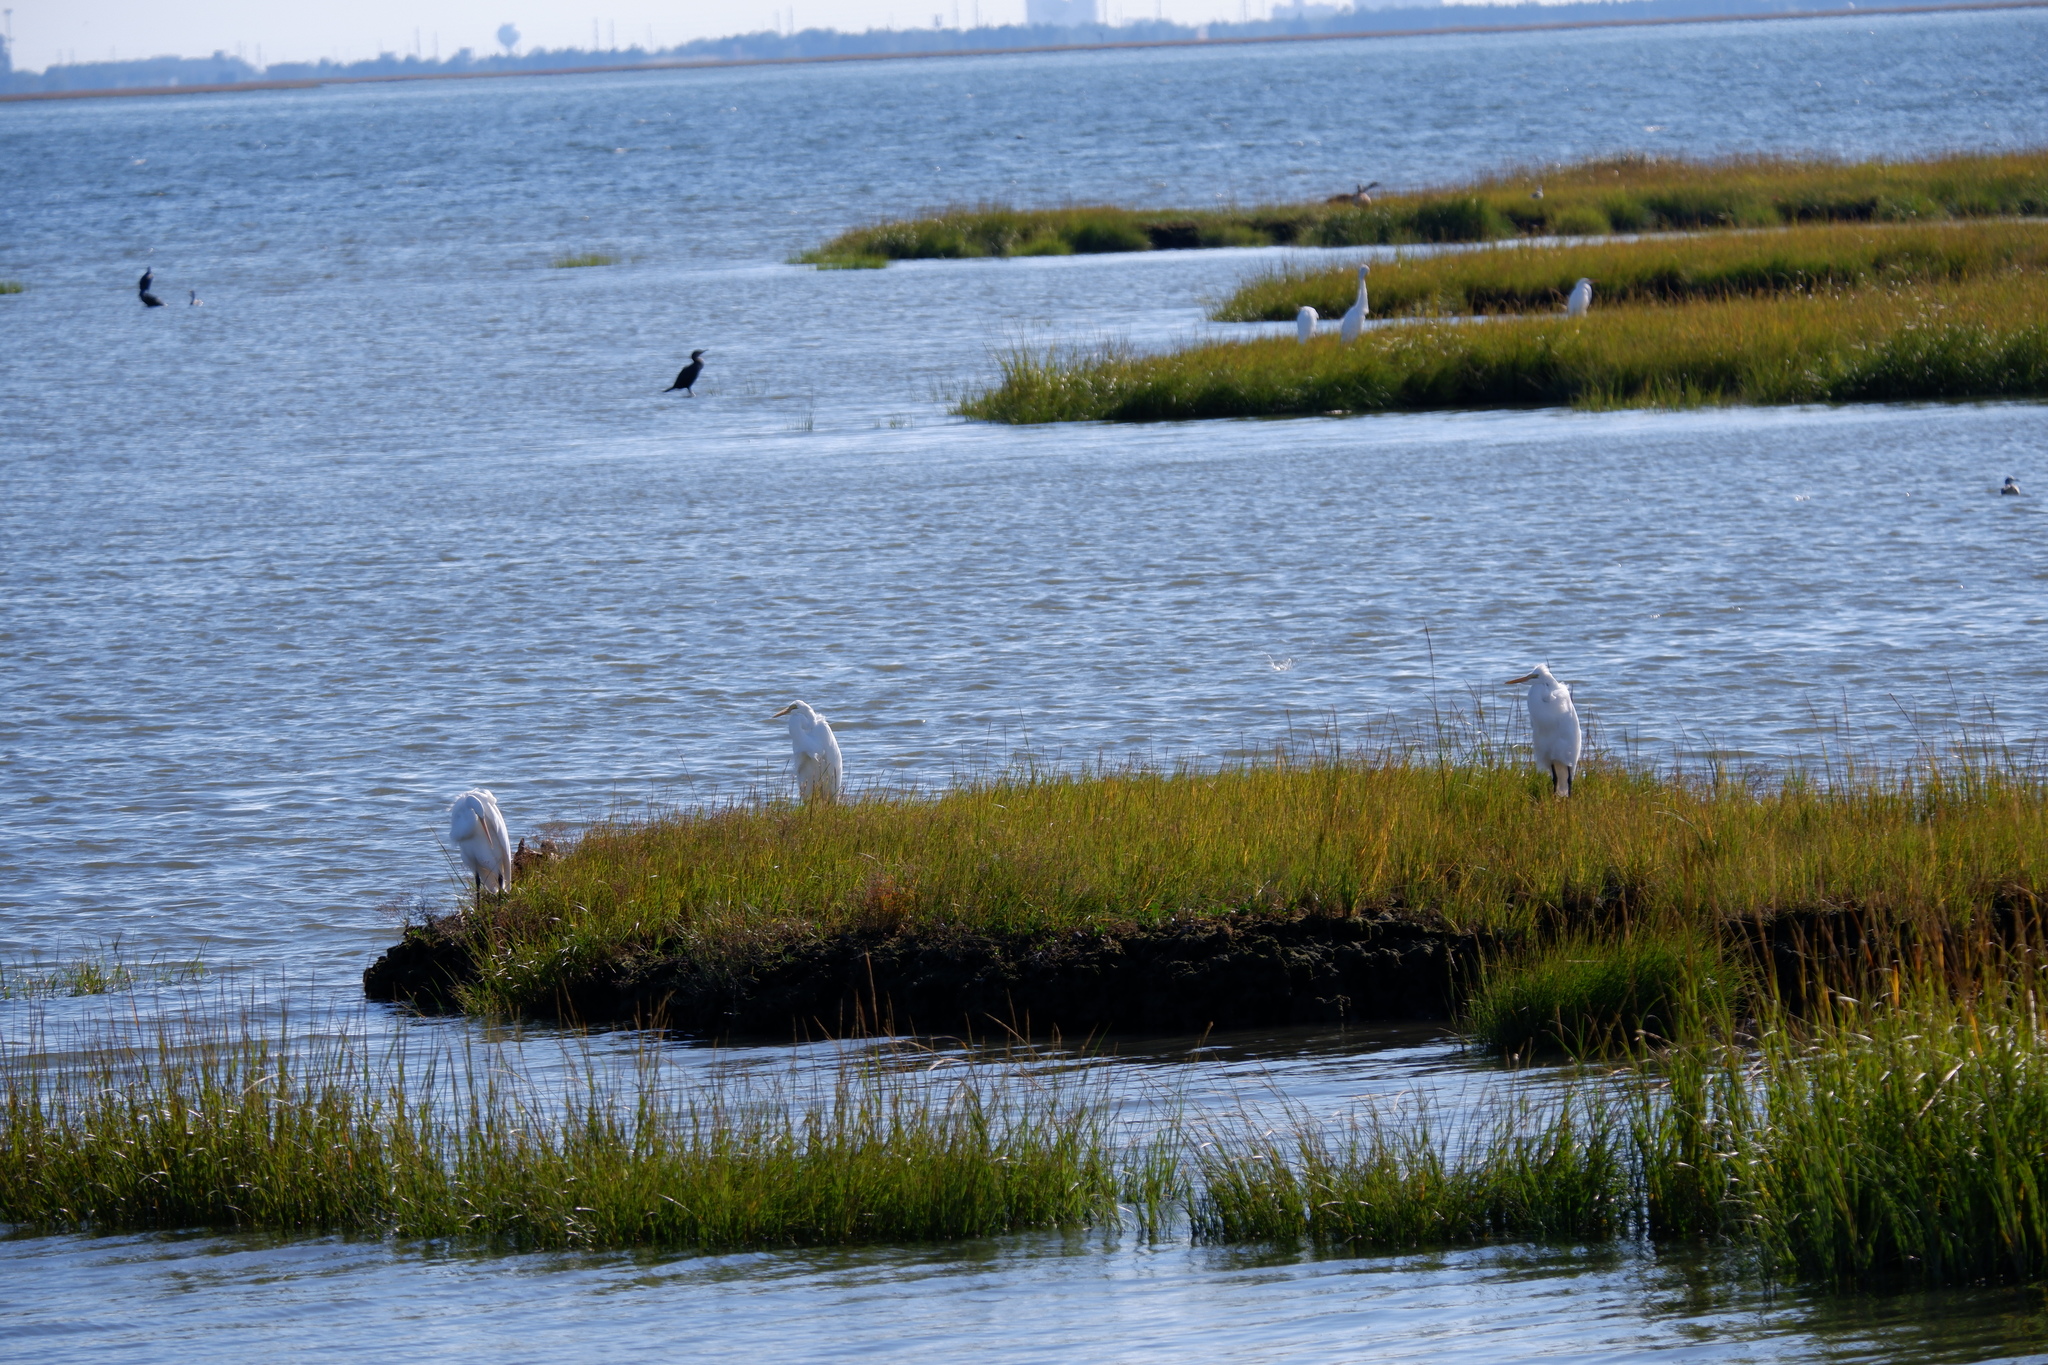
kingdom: Animalia
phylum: Chordata
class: Aves
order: Pelecaniformes
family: Ardeidae
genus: Ardea
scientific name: Ardea alba
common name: Great egret
